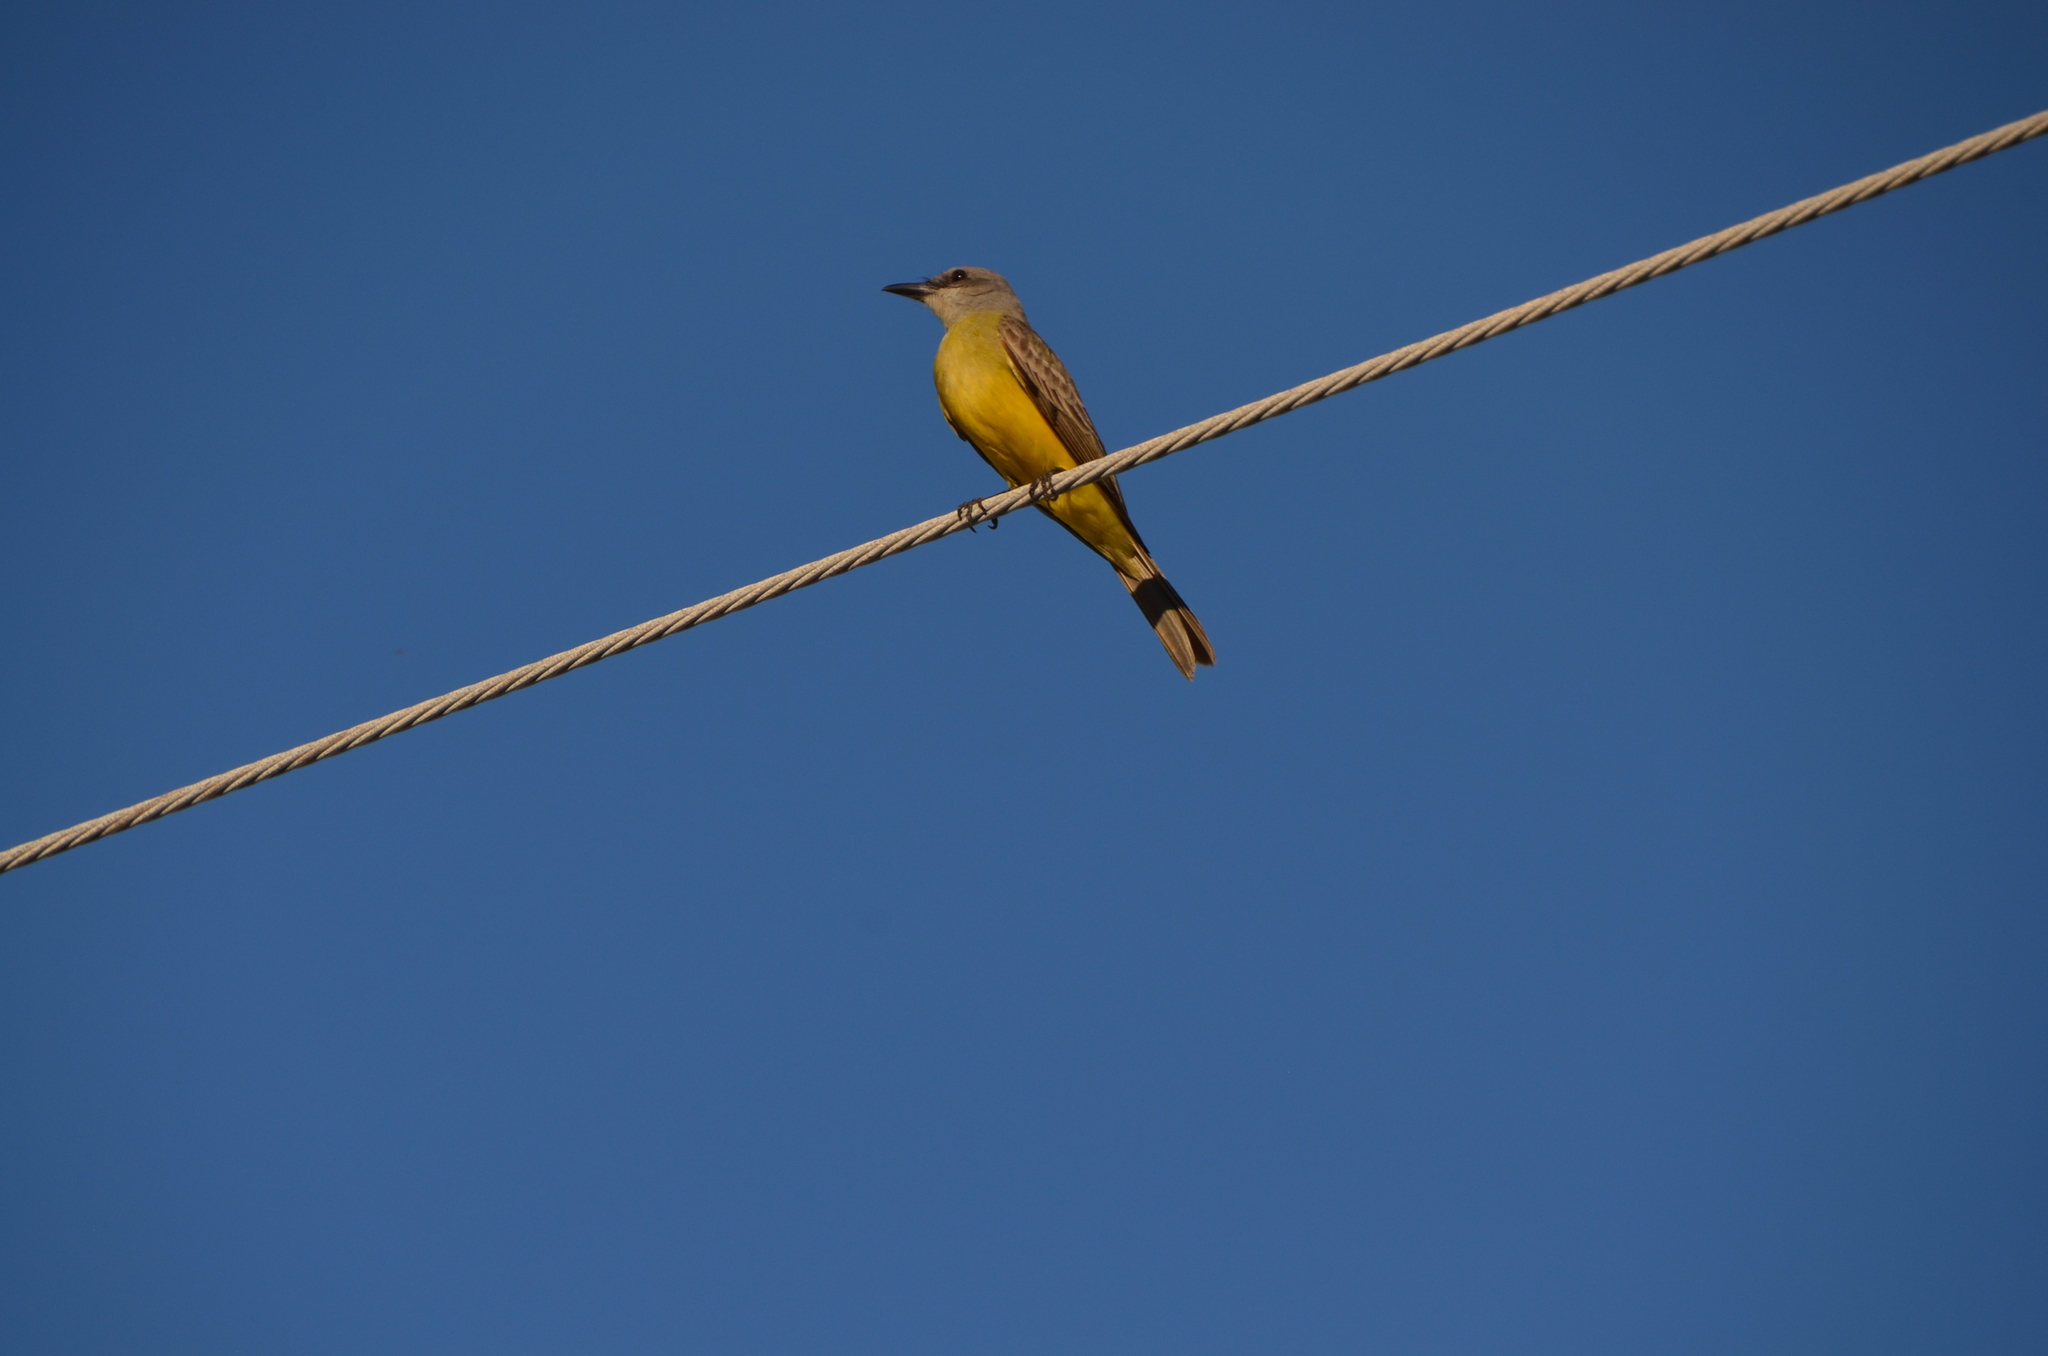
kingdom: Animalia
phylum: Chordata
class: Aves
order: Passeriformes
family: Tyrannidae
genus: Tyrannus
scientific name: Tyrannus melancholicus
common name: Tropical kingbird
